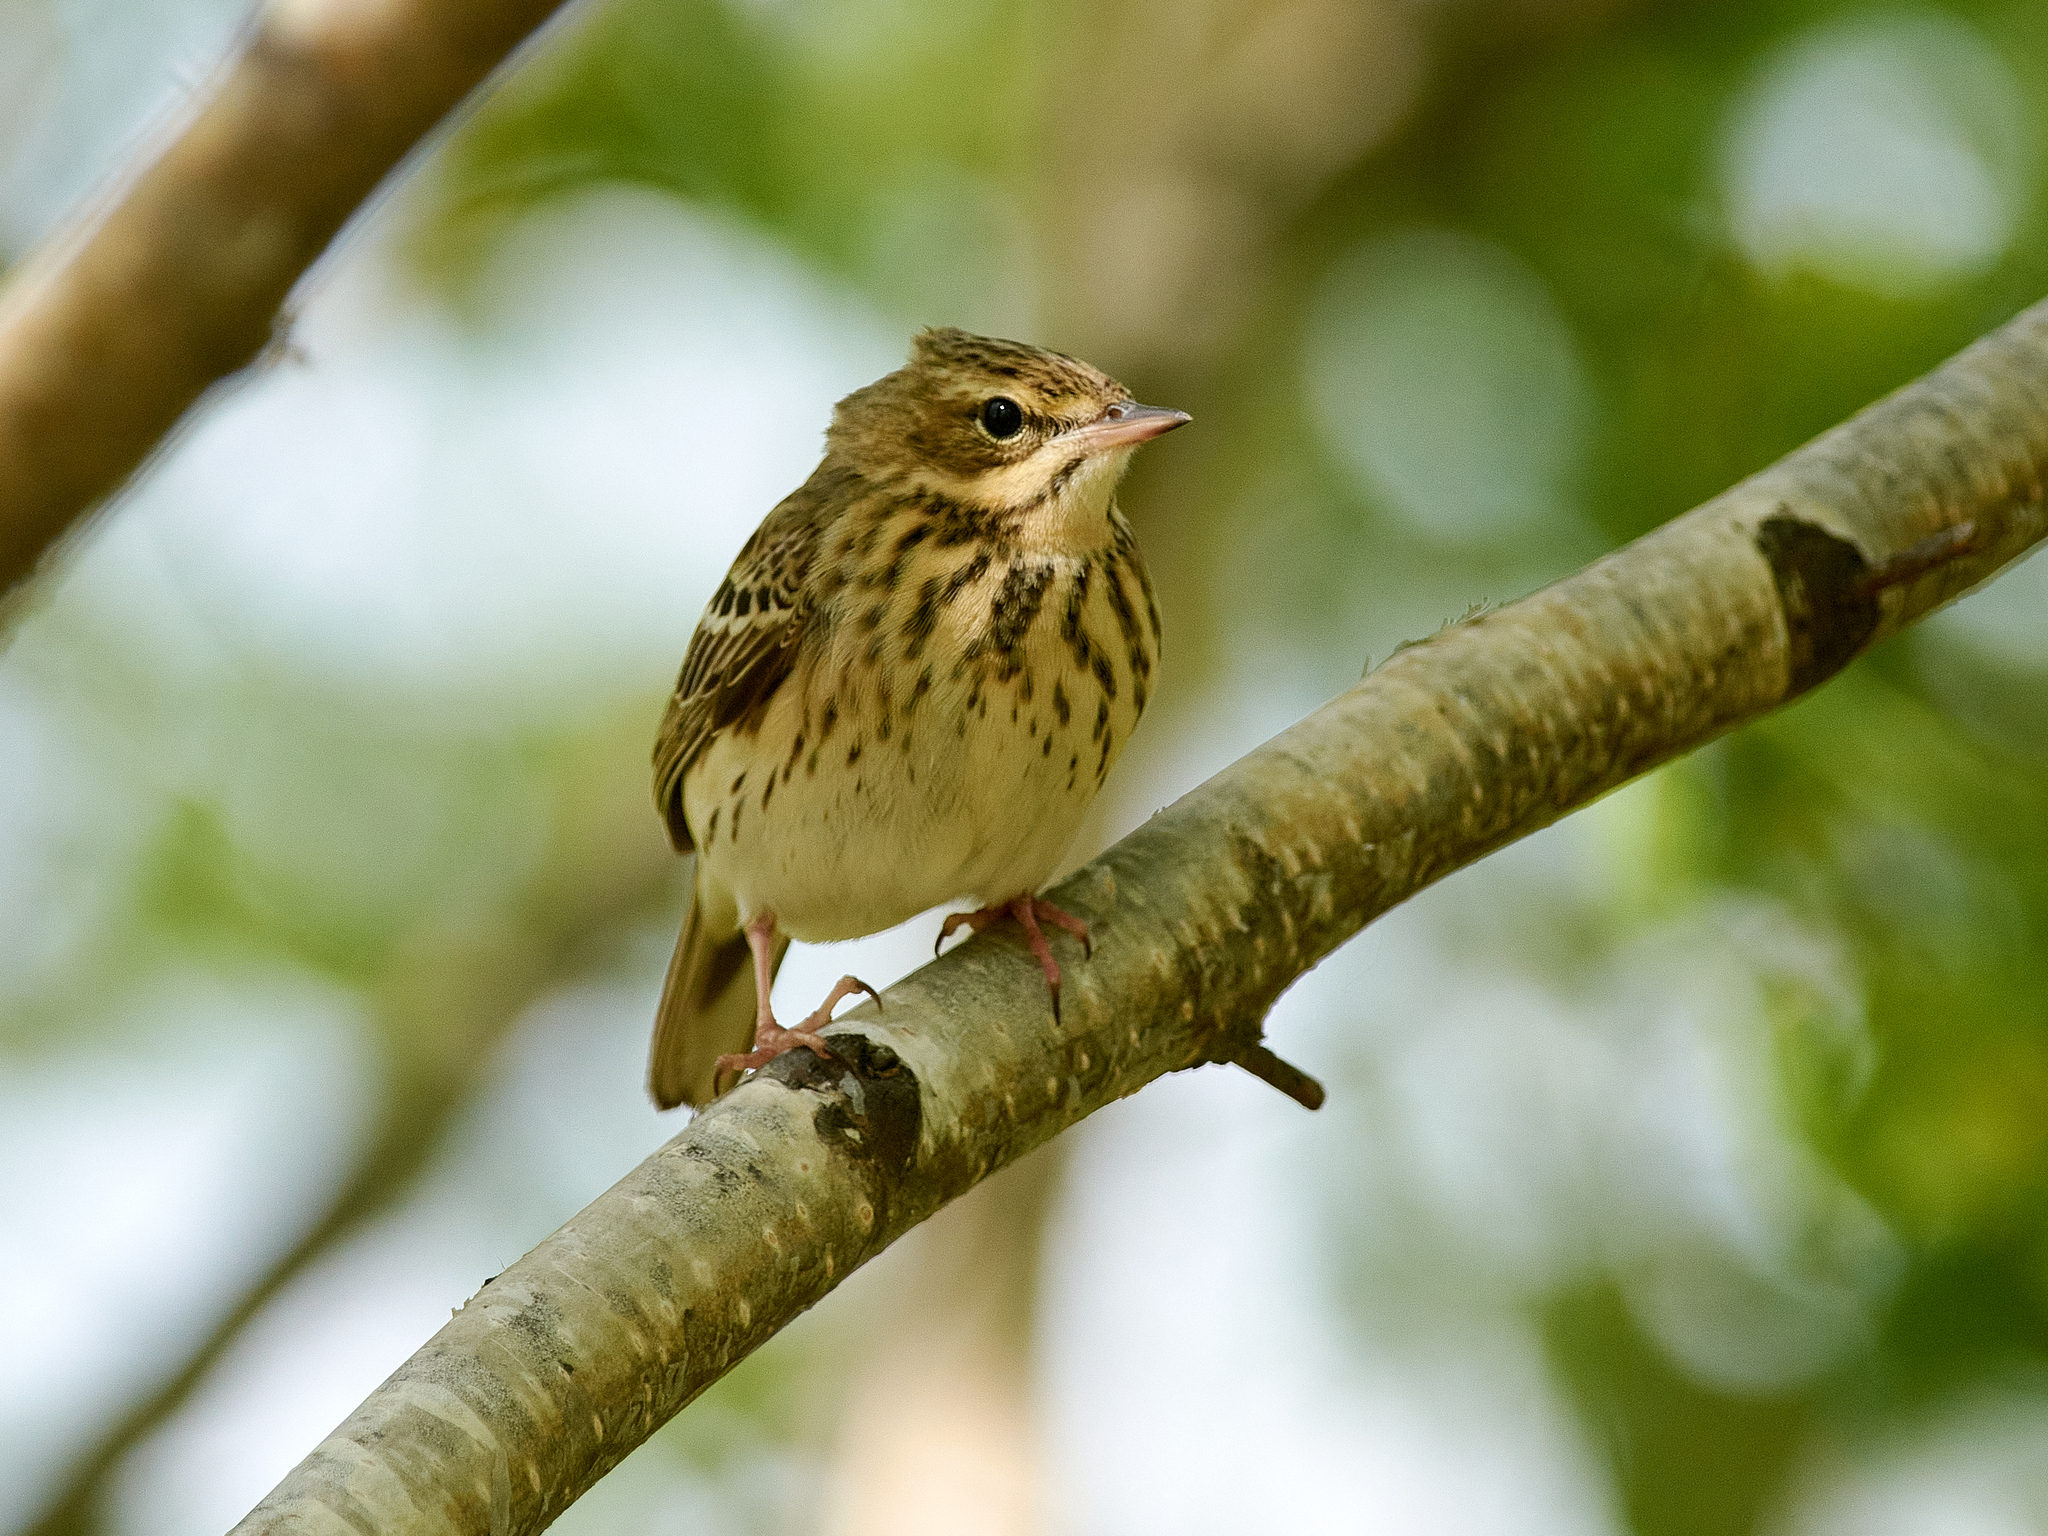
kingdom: Animalia
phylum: Chordata
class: Aves
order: Passeriformes
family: Motacillidae
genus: Anthus
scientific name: Anthus trivialis
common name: Tree pipit
